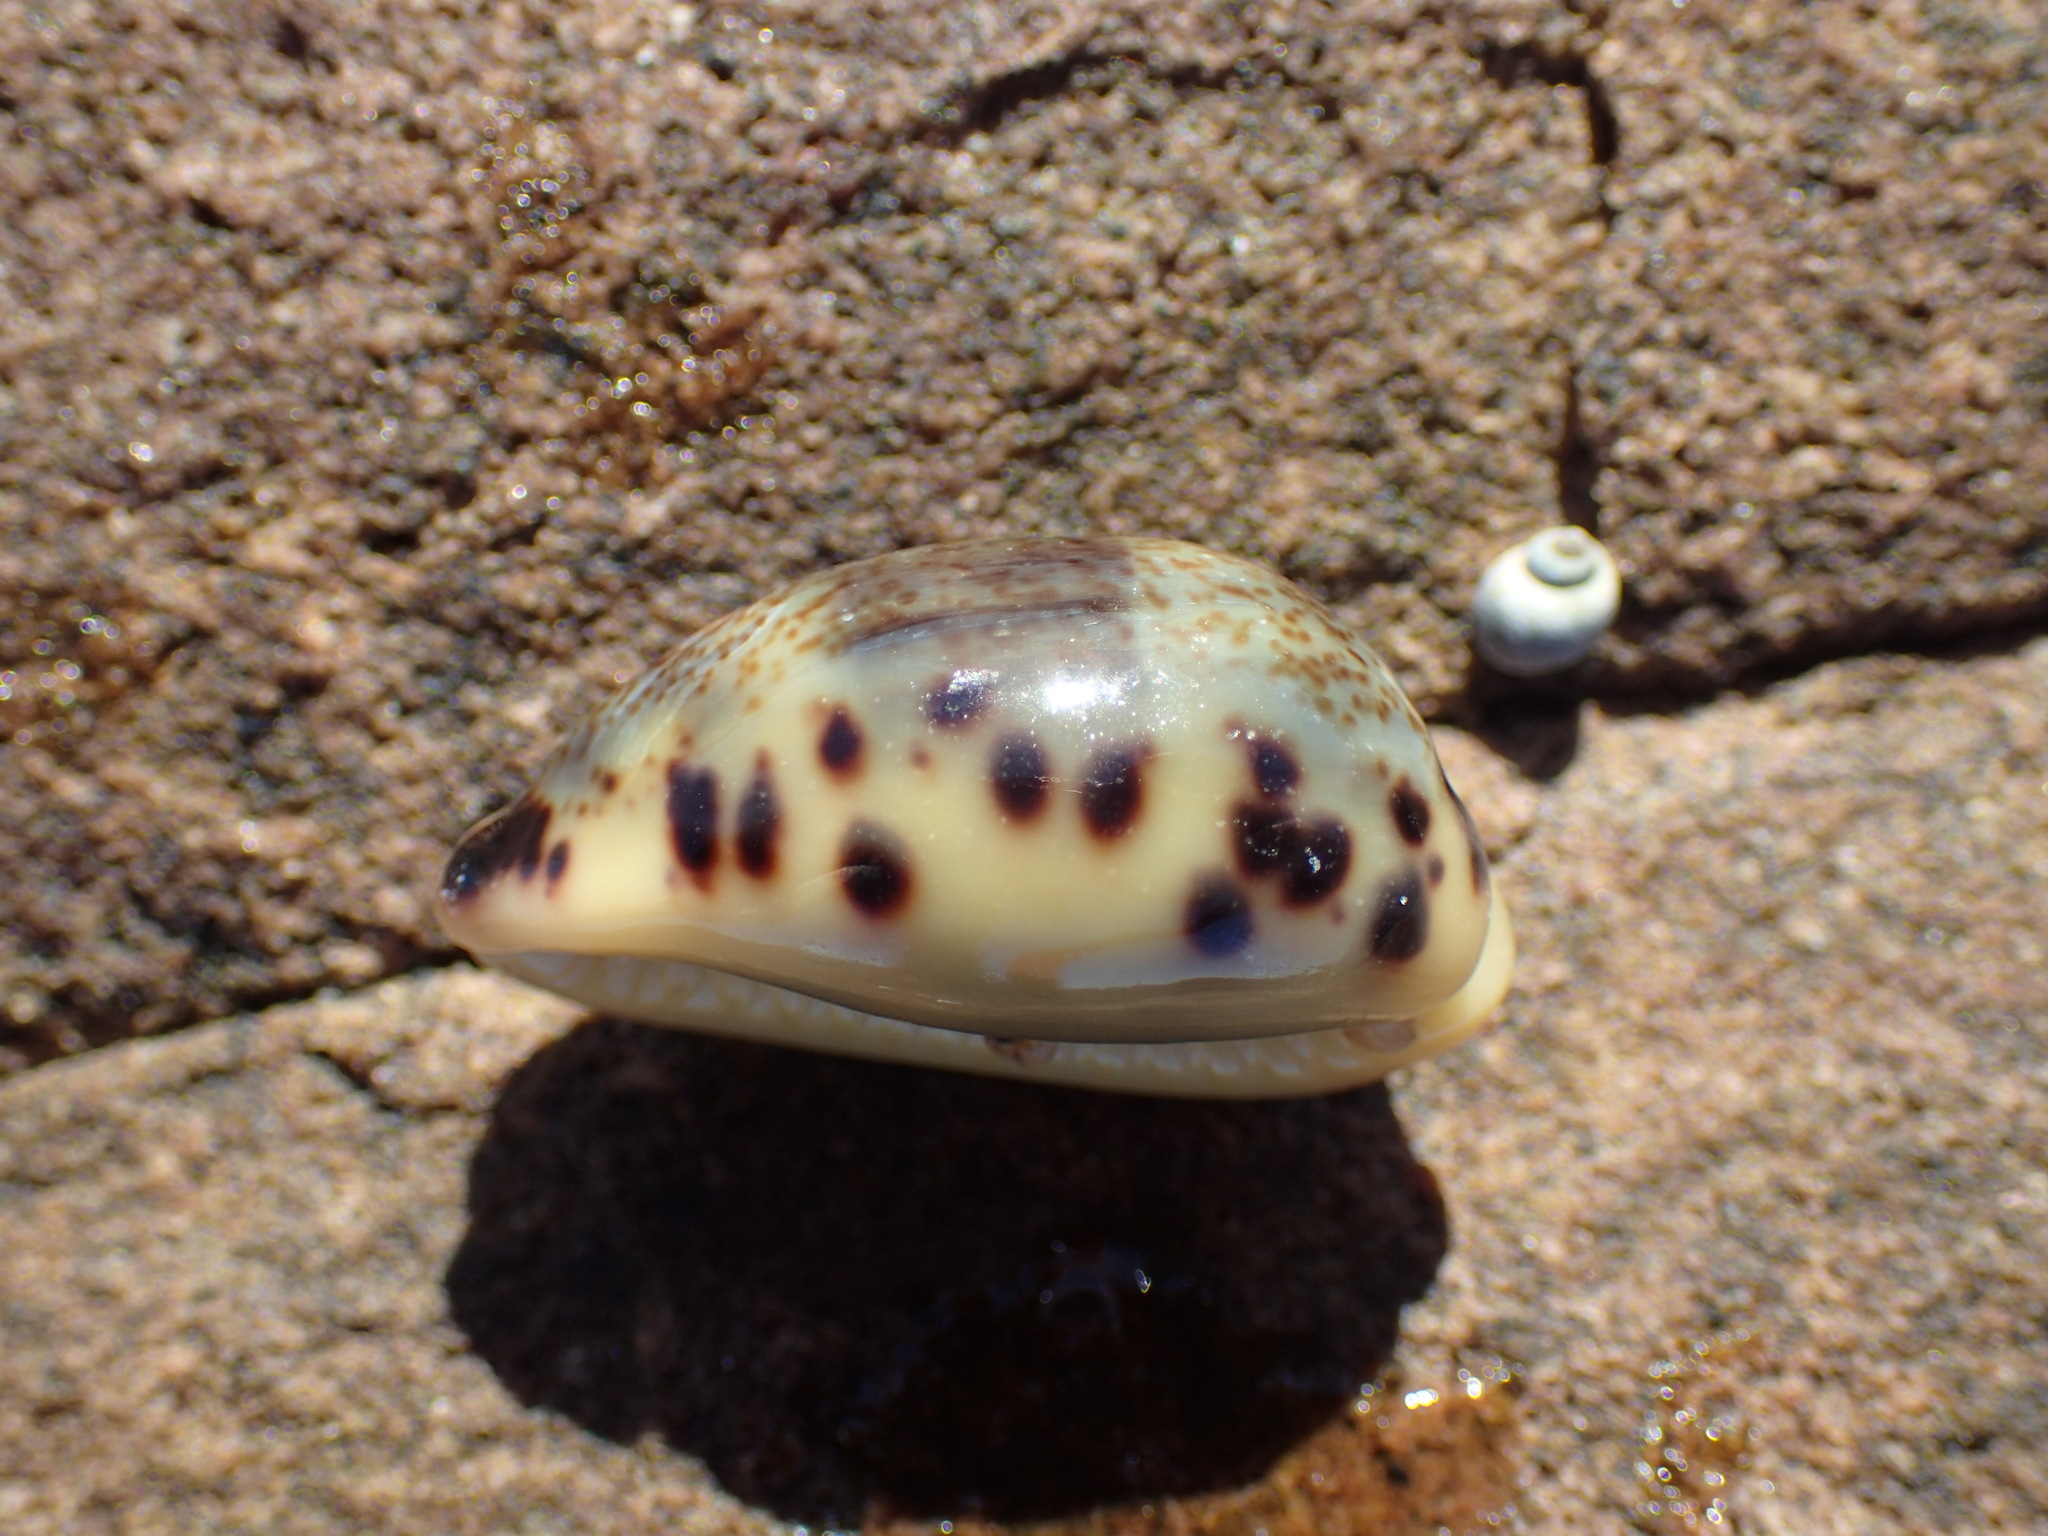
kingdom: Animalia
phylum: Mollusca
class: Gastropoda
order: Littorinimorpha
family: Cypraeidae
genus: Melicerona
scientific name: Melicerona felina
